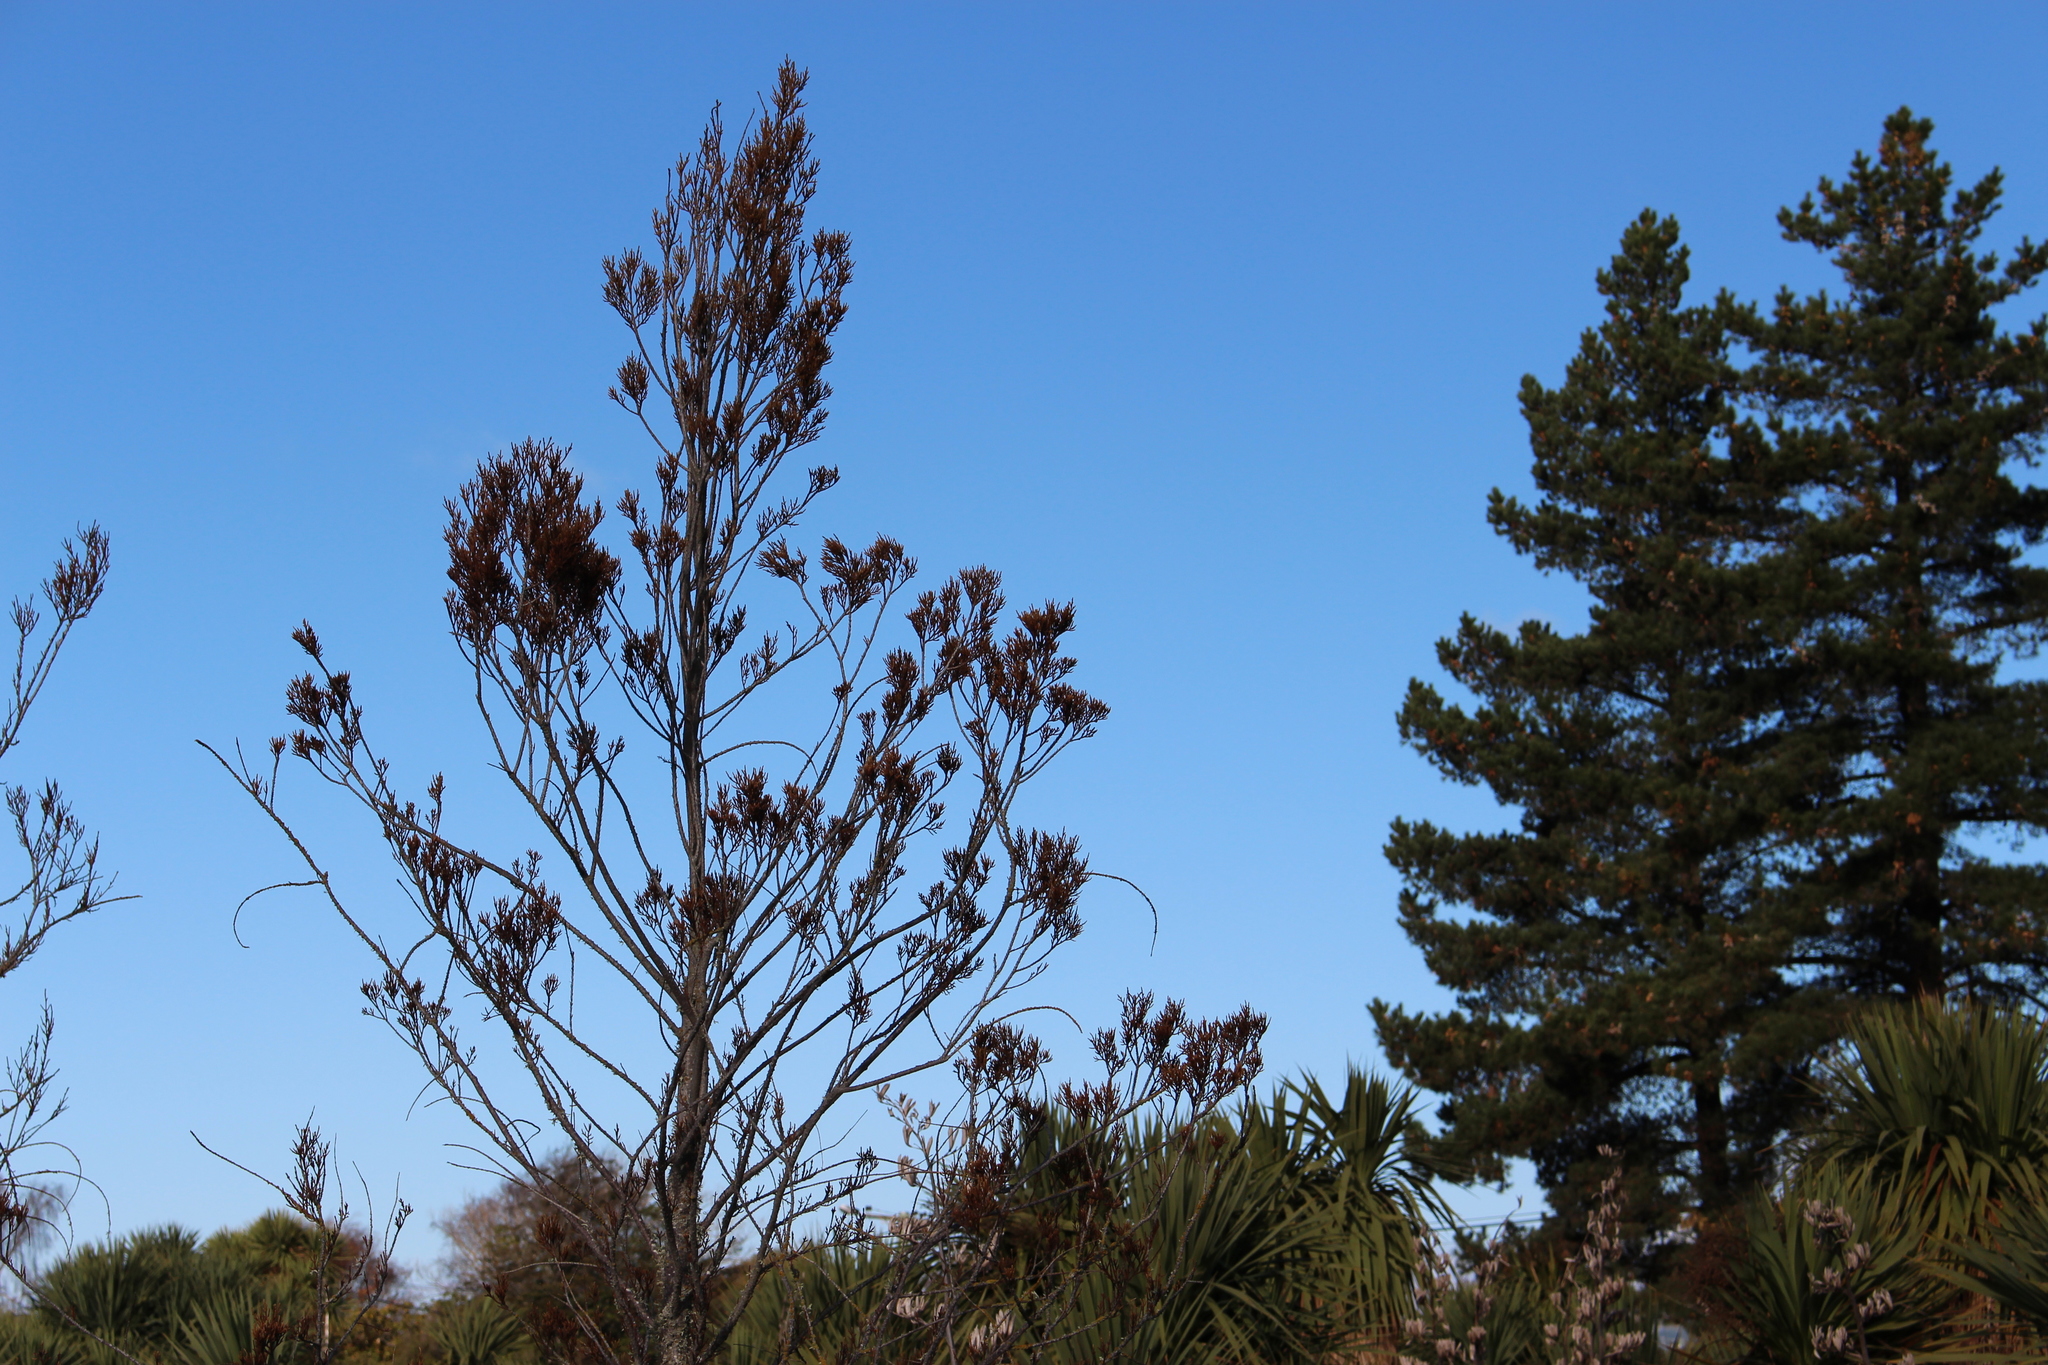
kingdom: Plantae
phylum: Tracheophyta
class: Pinopsida
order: Pinales
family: Podocarpaceae
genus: Dacrycarpus
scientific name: Dacrycarpus dacrydioides
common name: White pine
